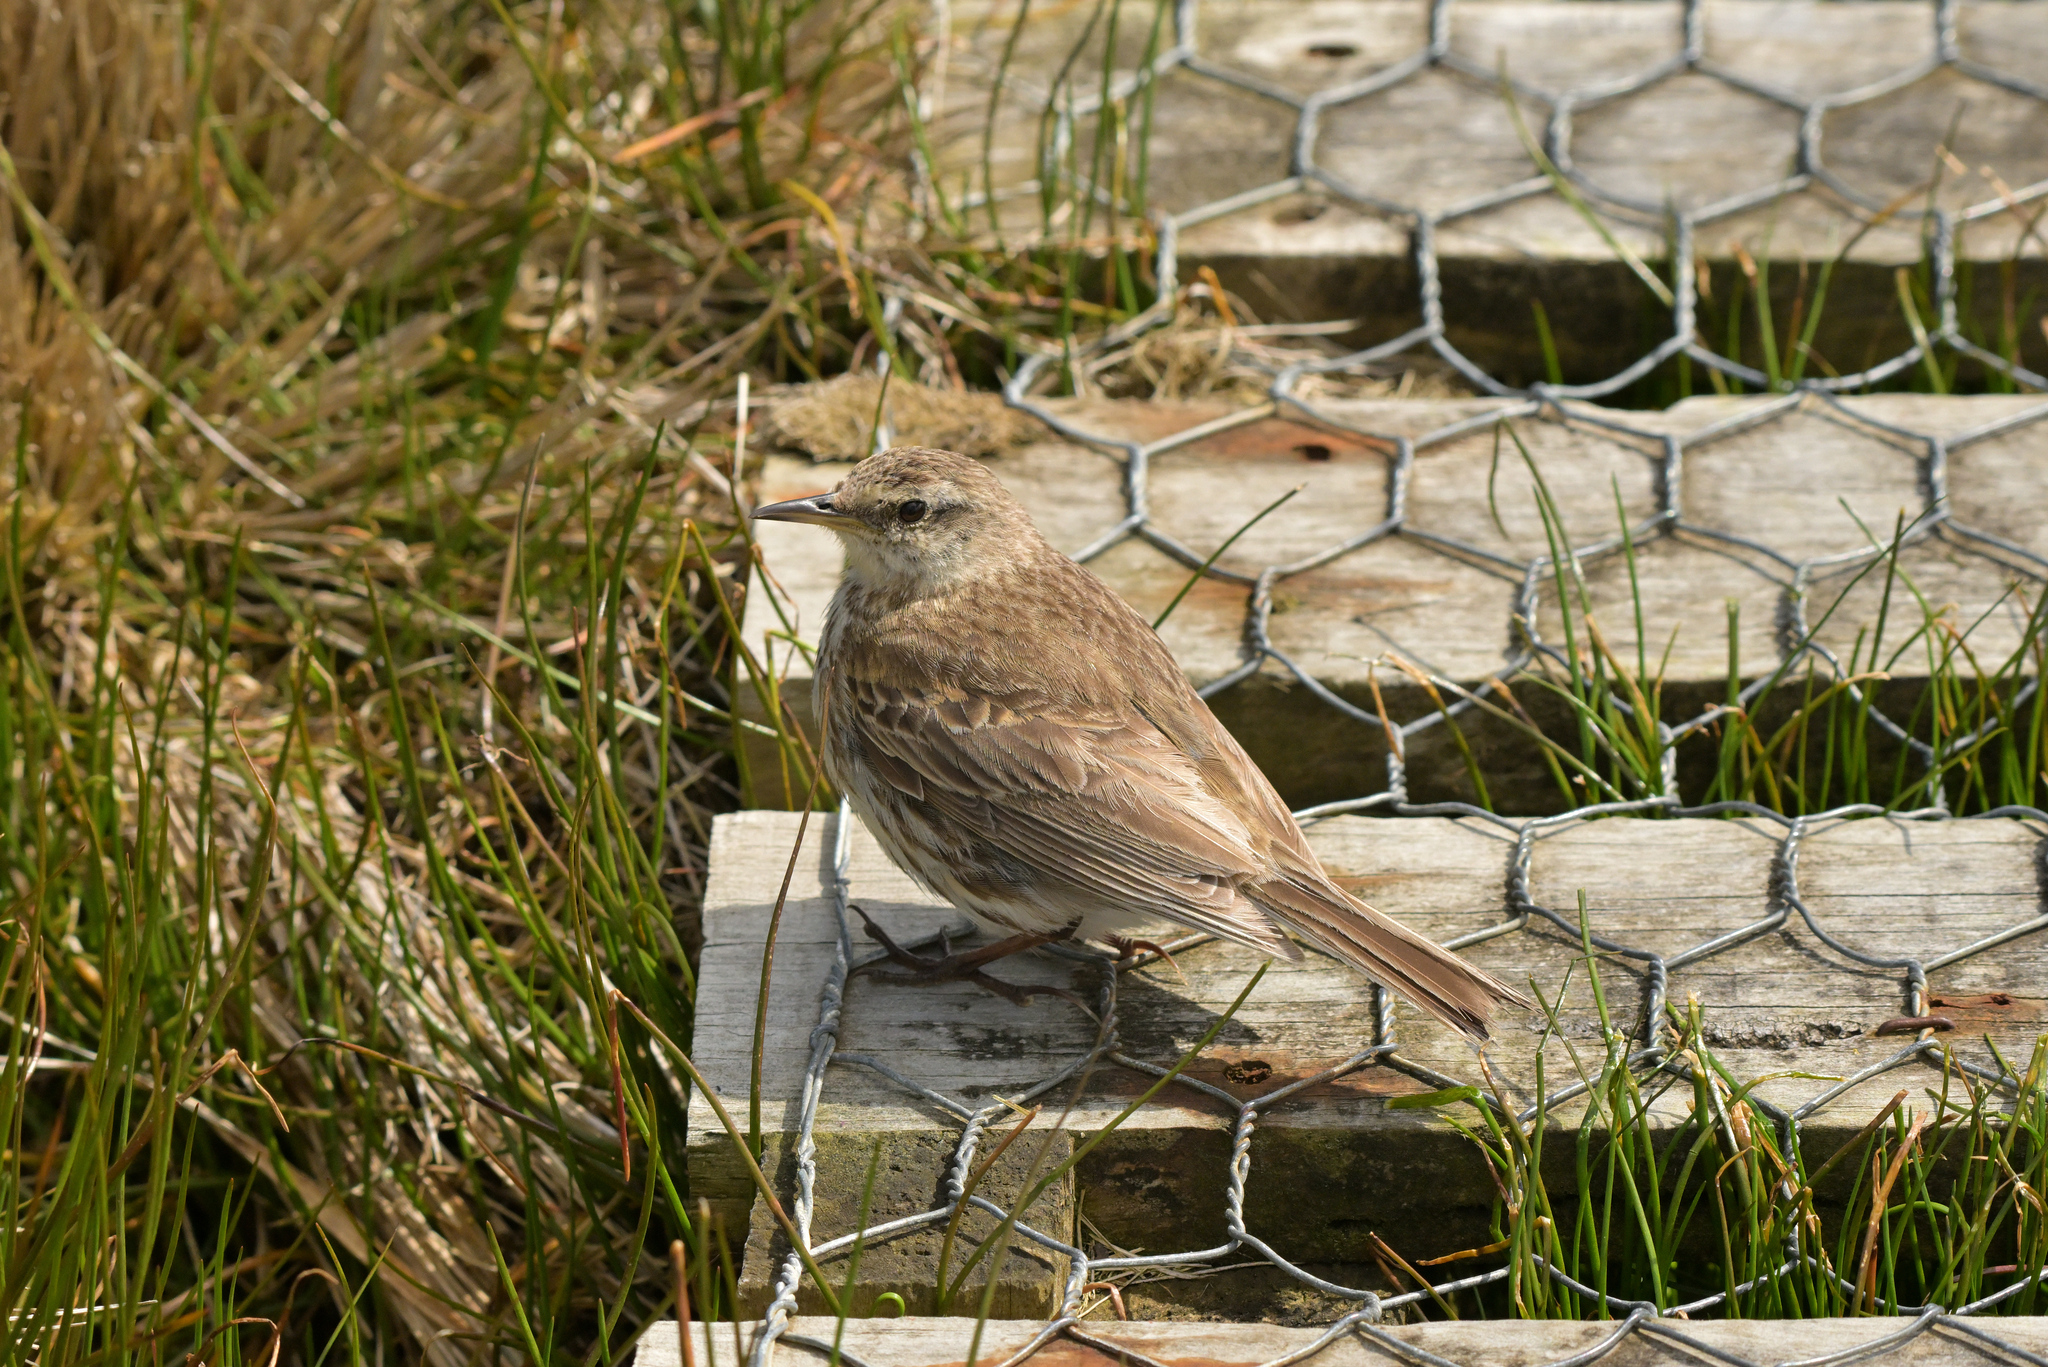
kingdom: Animalia
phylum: Chordata
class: Aves
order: Passeriformes
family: Motacillidae
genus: Anthus
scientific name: Anthus novaeseelandiae
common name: New zealand pipit
